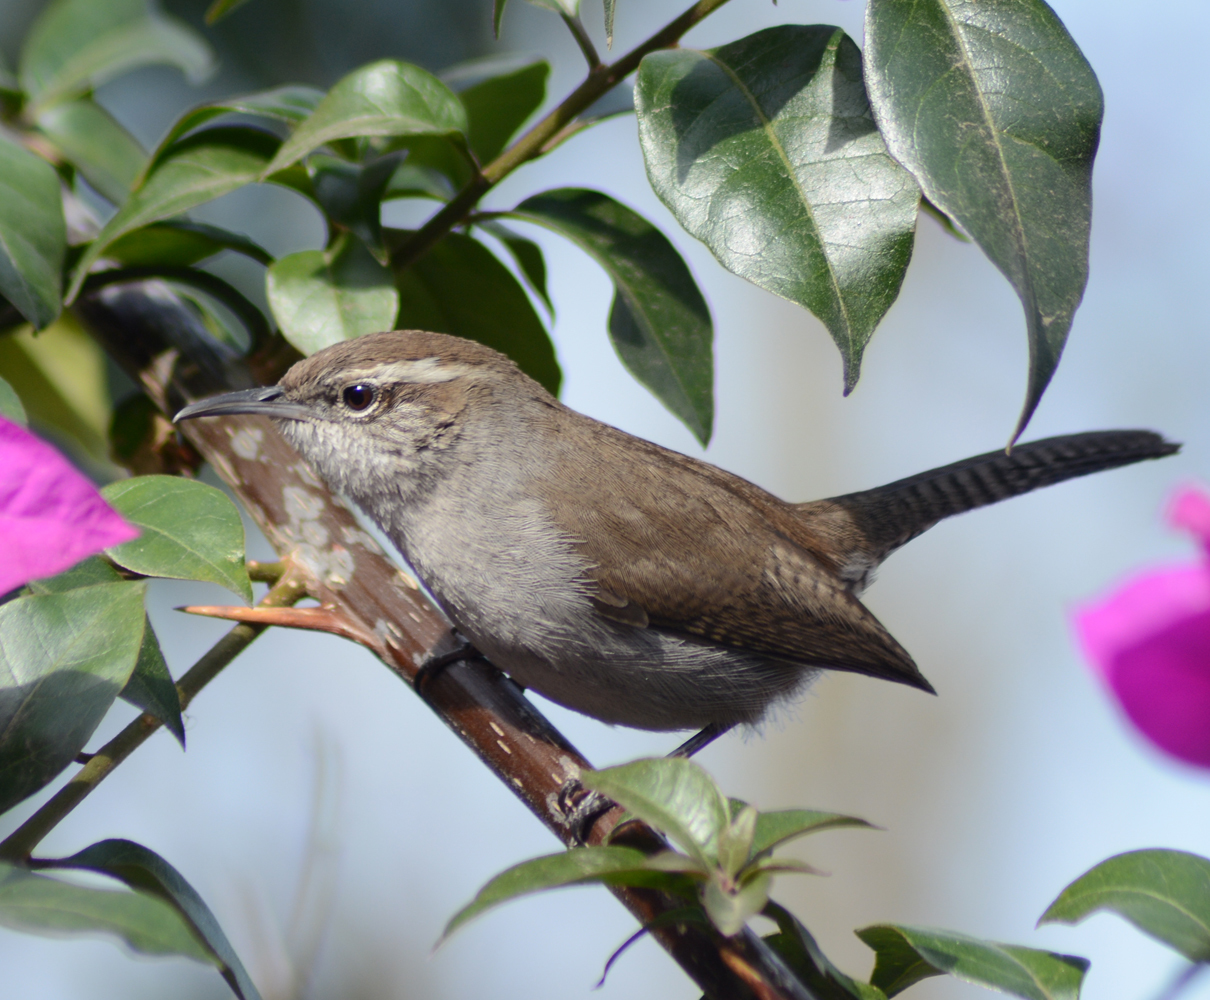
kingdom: Animalia
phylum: Chordata
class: Aves
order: Passeriformes
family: Troglodytidae
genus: Thryomanes
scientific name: Thryomanes bewickii
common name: Bewick's wren
